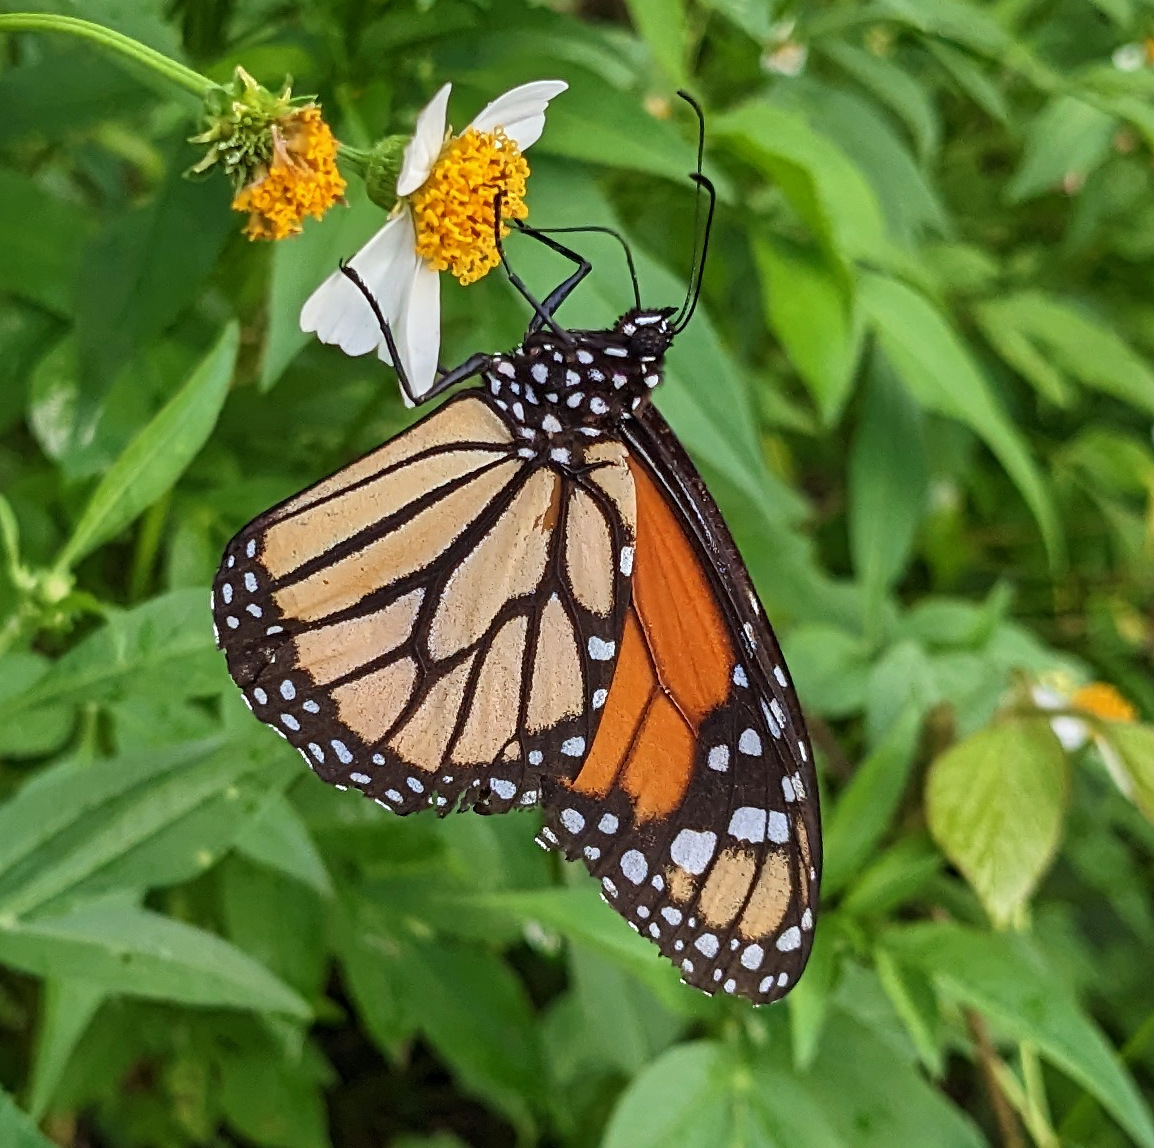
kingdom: Animalia
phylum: Arthropoda
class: Insecta
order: Lepidoptera
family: Nymphalidae
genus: Danaus
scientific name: Danaus plexippus
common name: Monarch
